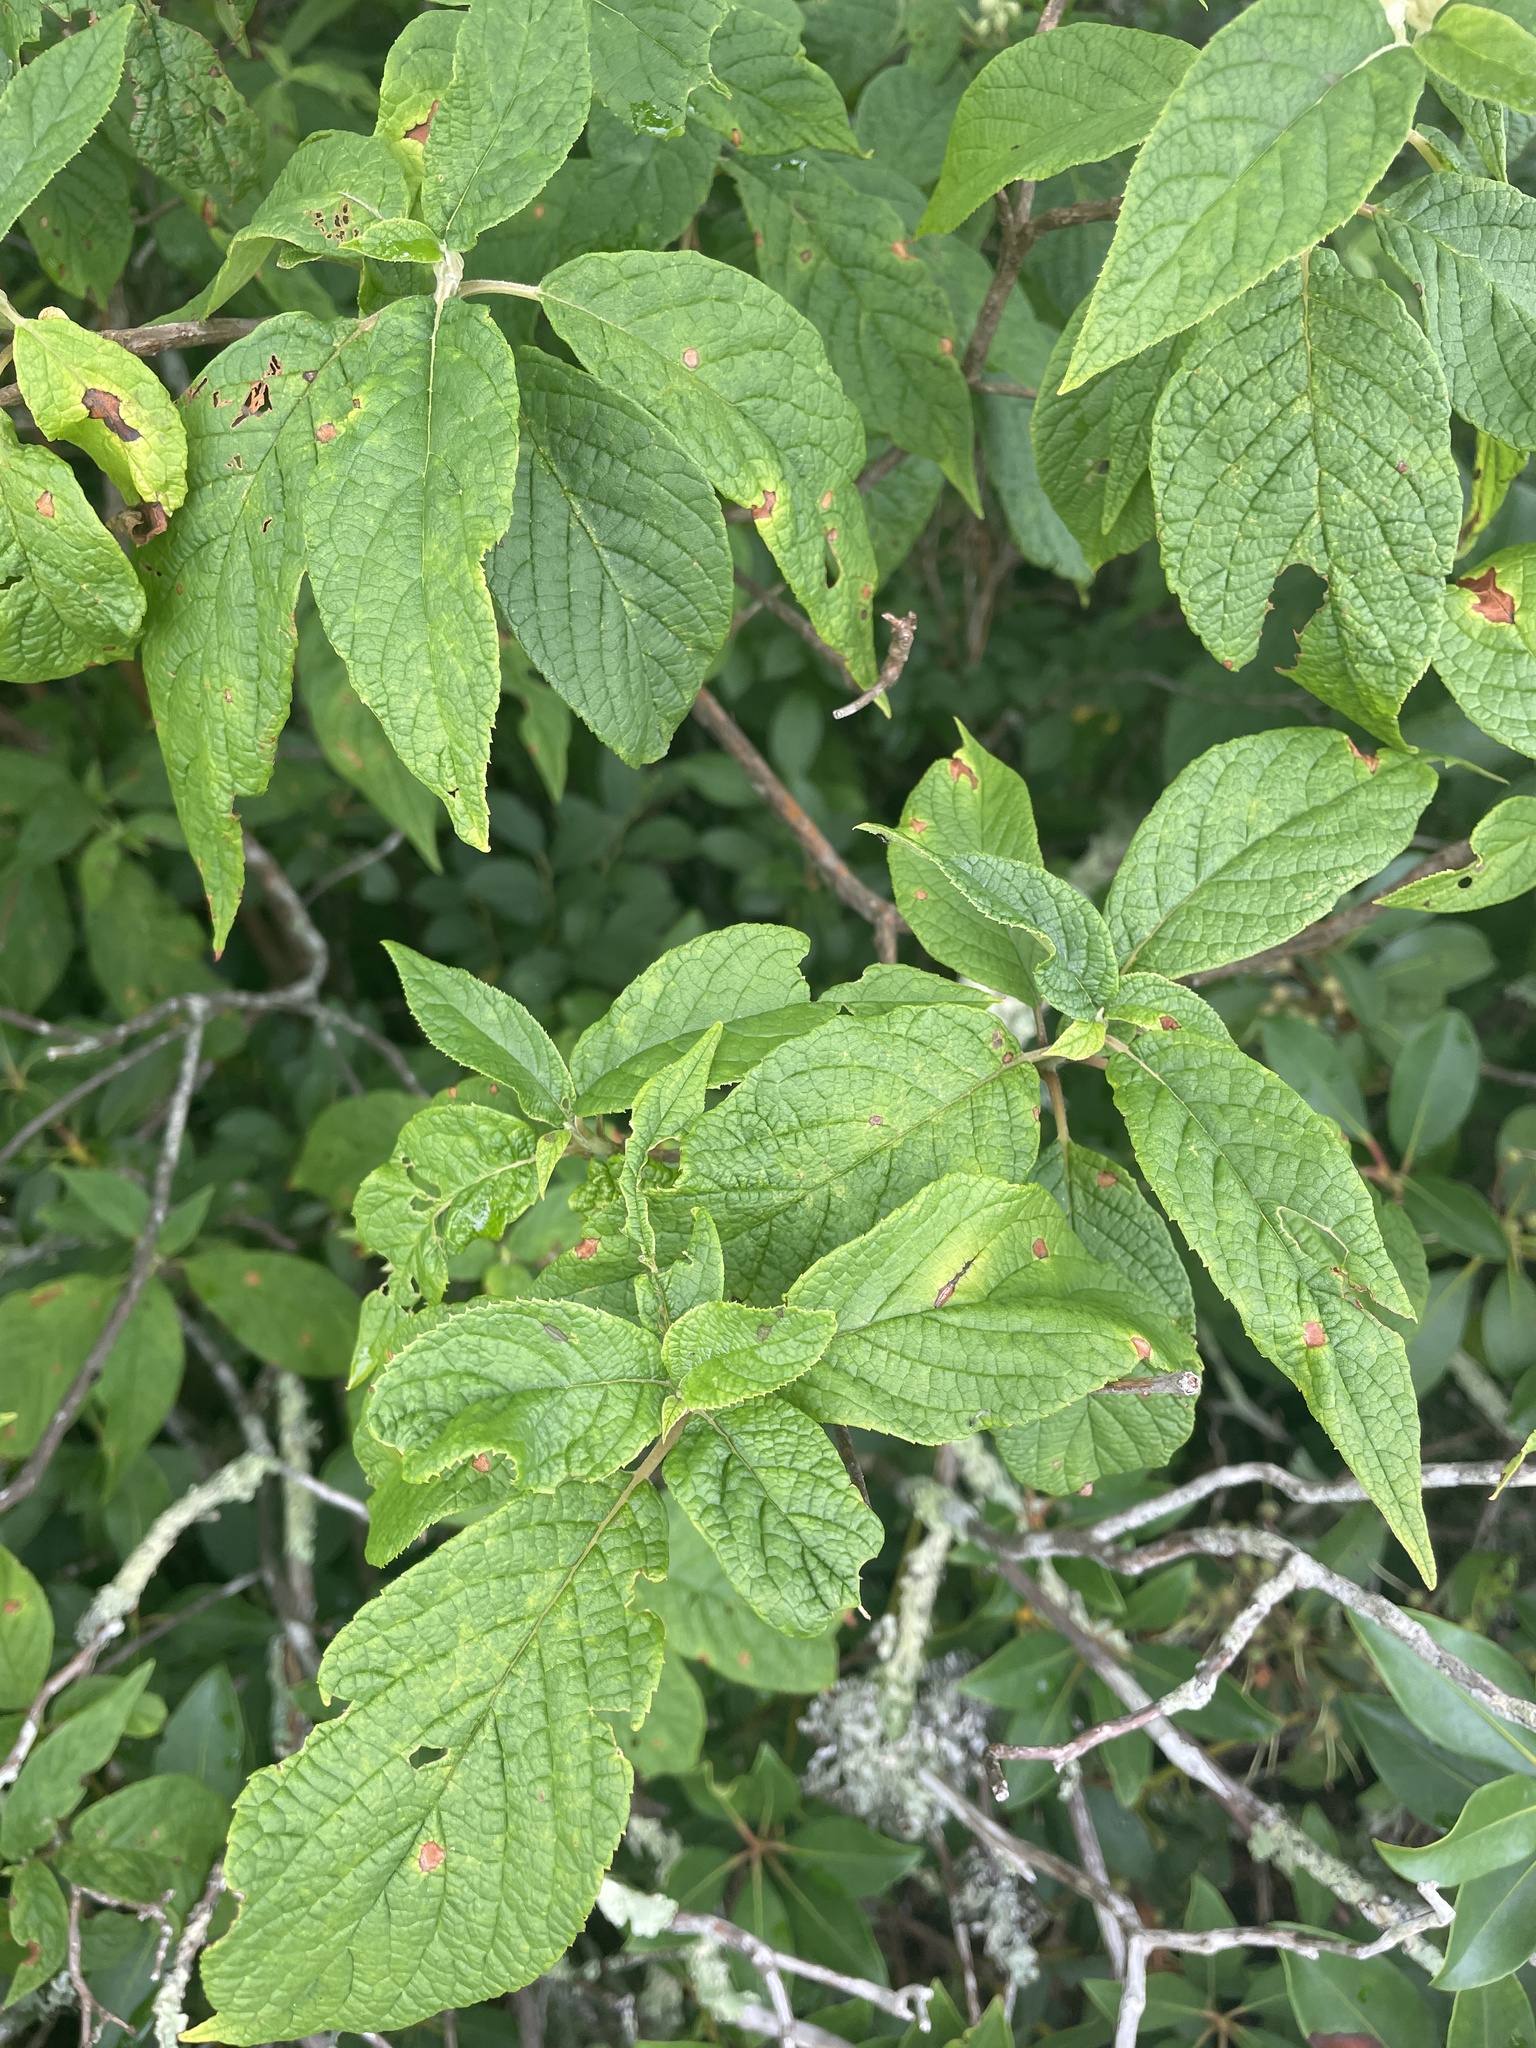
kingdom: Plantae
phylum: Tracheophyta
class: Magnoliopsida
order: Ericales
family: Clethraceae
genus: Clethra
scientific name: Clethra acuminata
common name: Mountain sweet pepperbush
